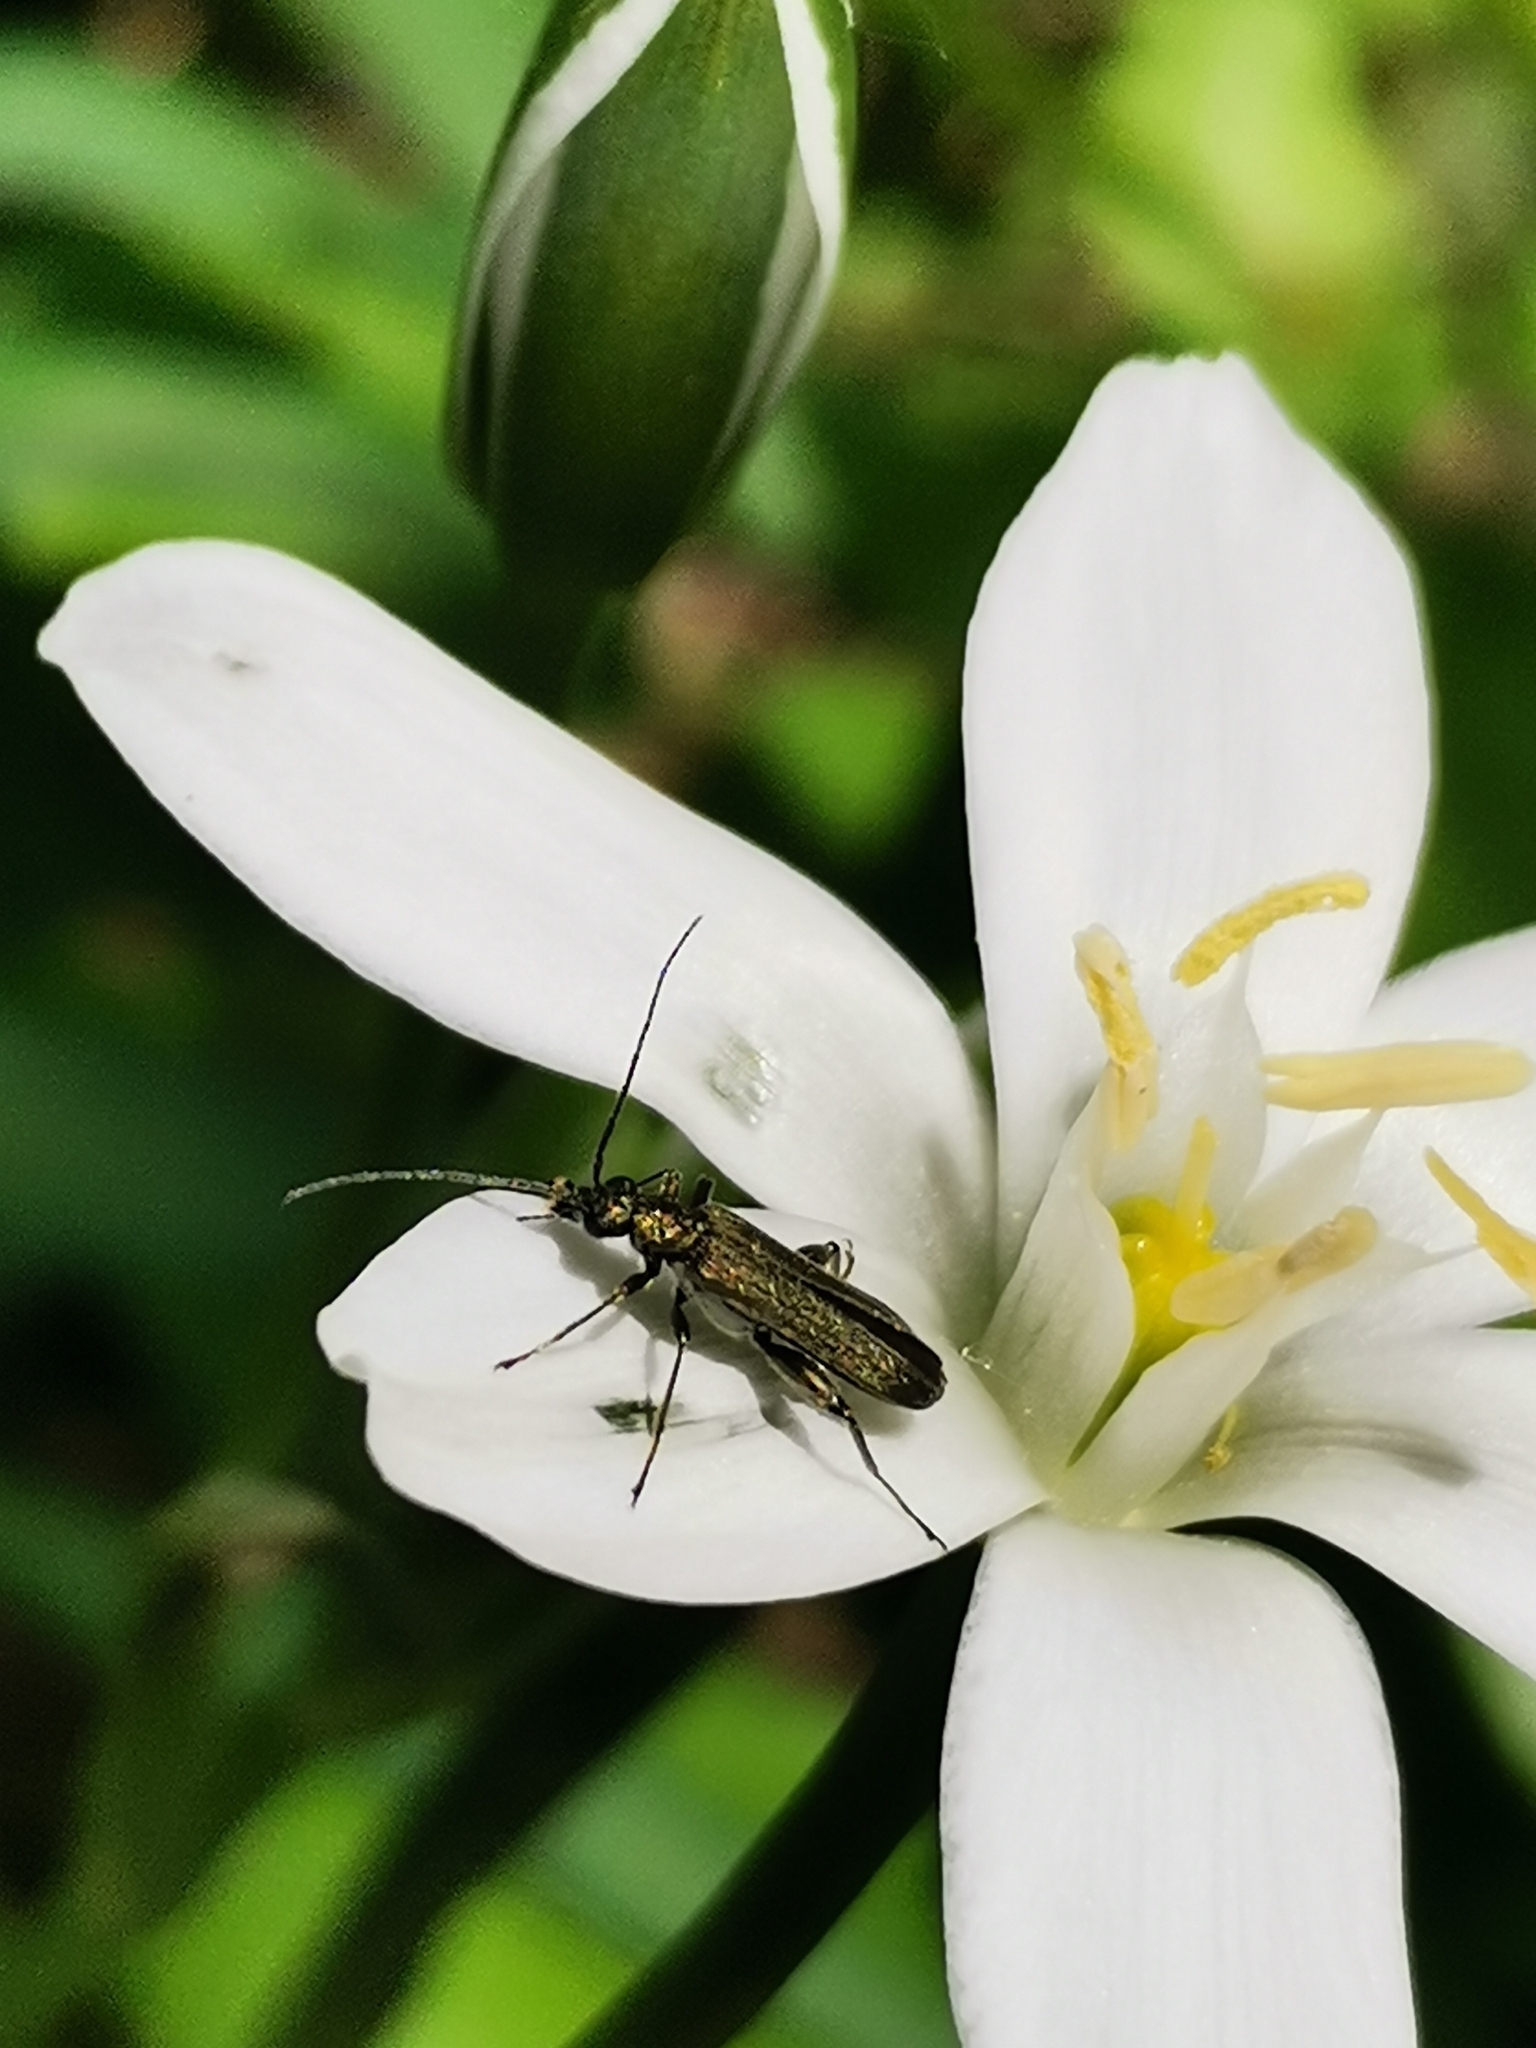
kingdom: Animalia
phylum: Arthropoda
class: Insecta
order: Coleoptera
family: Cerambycidae
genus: Grammoptera
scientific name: Grammoptera ruficornis
